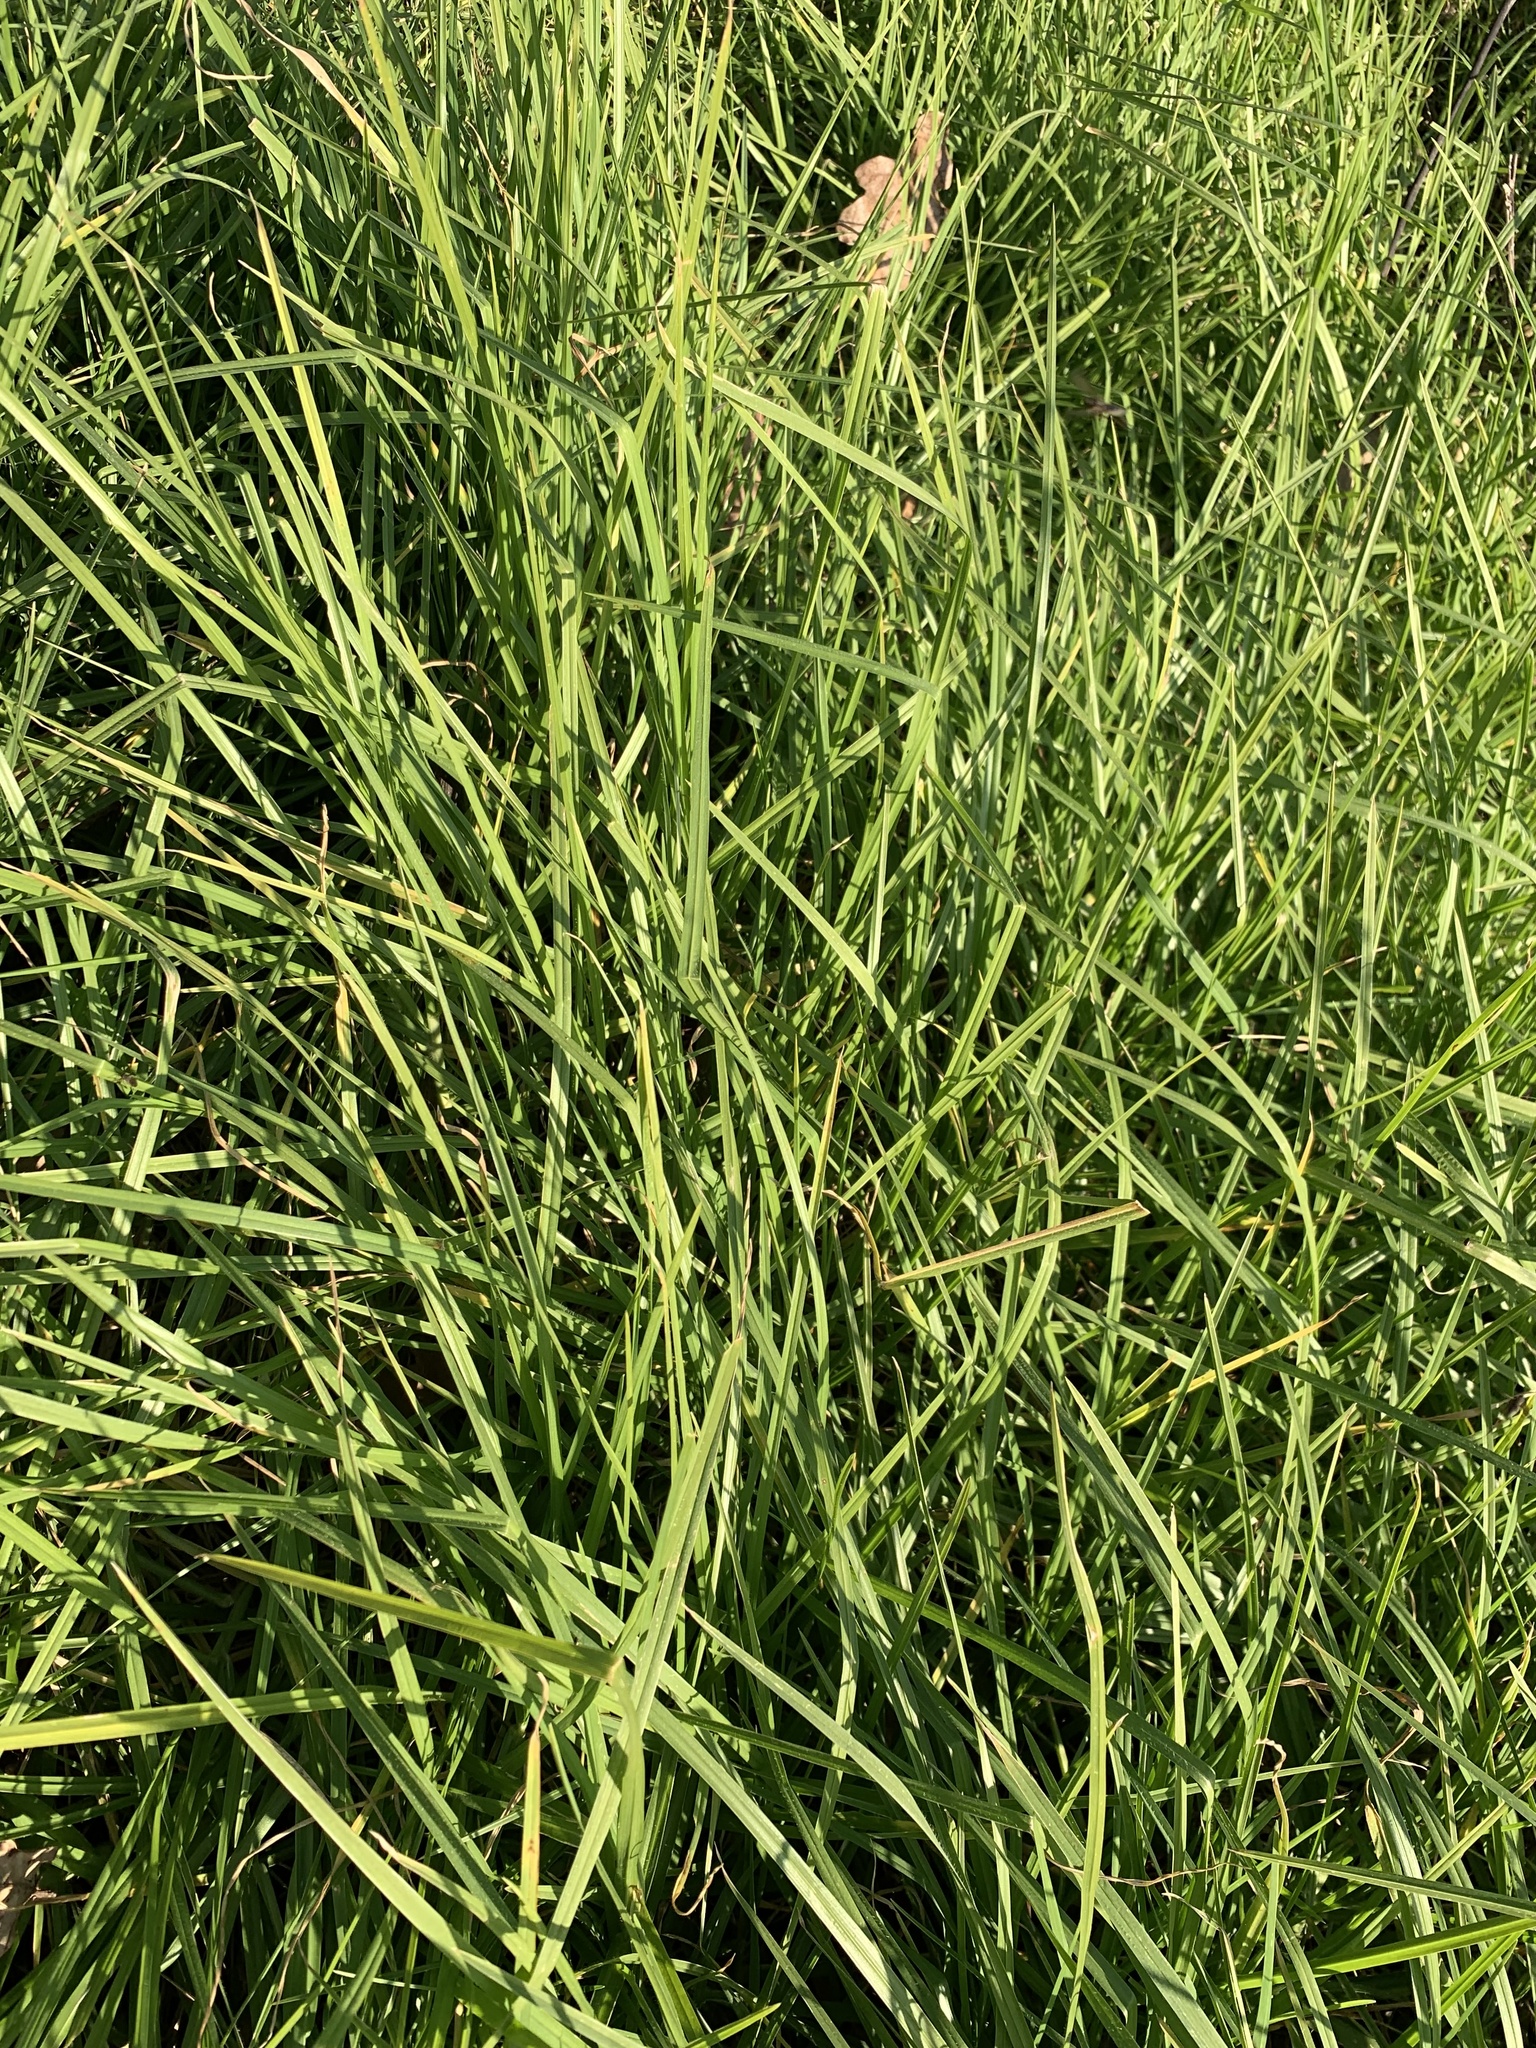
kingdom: Plantae
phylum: Tracheophyta
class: Liliopsida
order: Poales
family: Poaceae
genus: Cenchrus
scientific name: Cenchrus clandestinus
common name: Kikuyugrass
